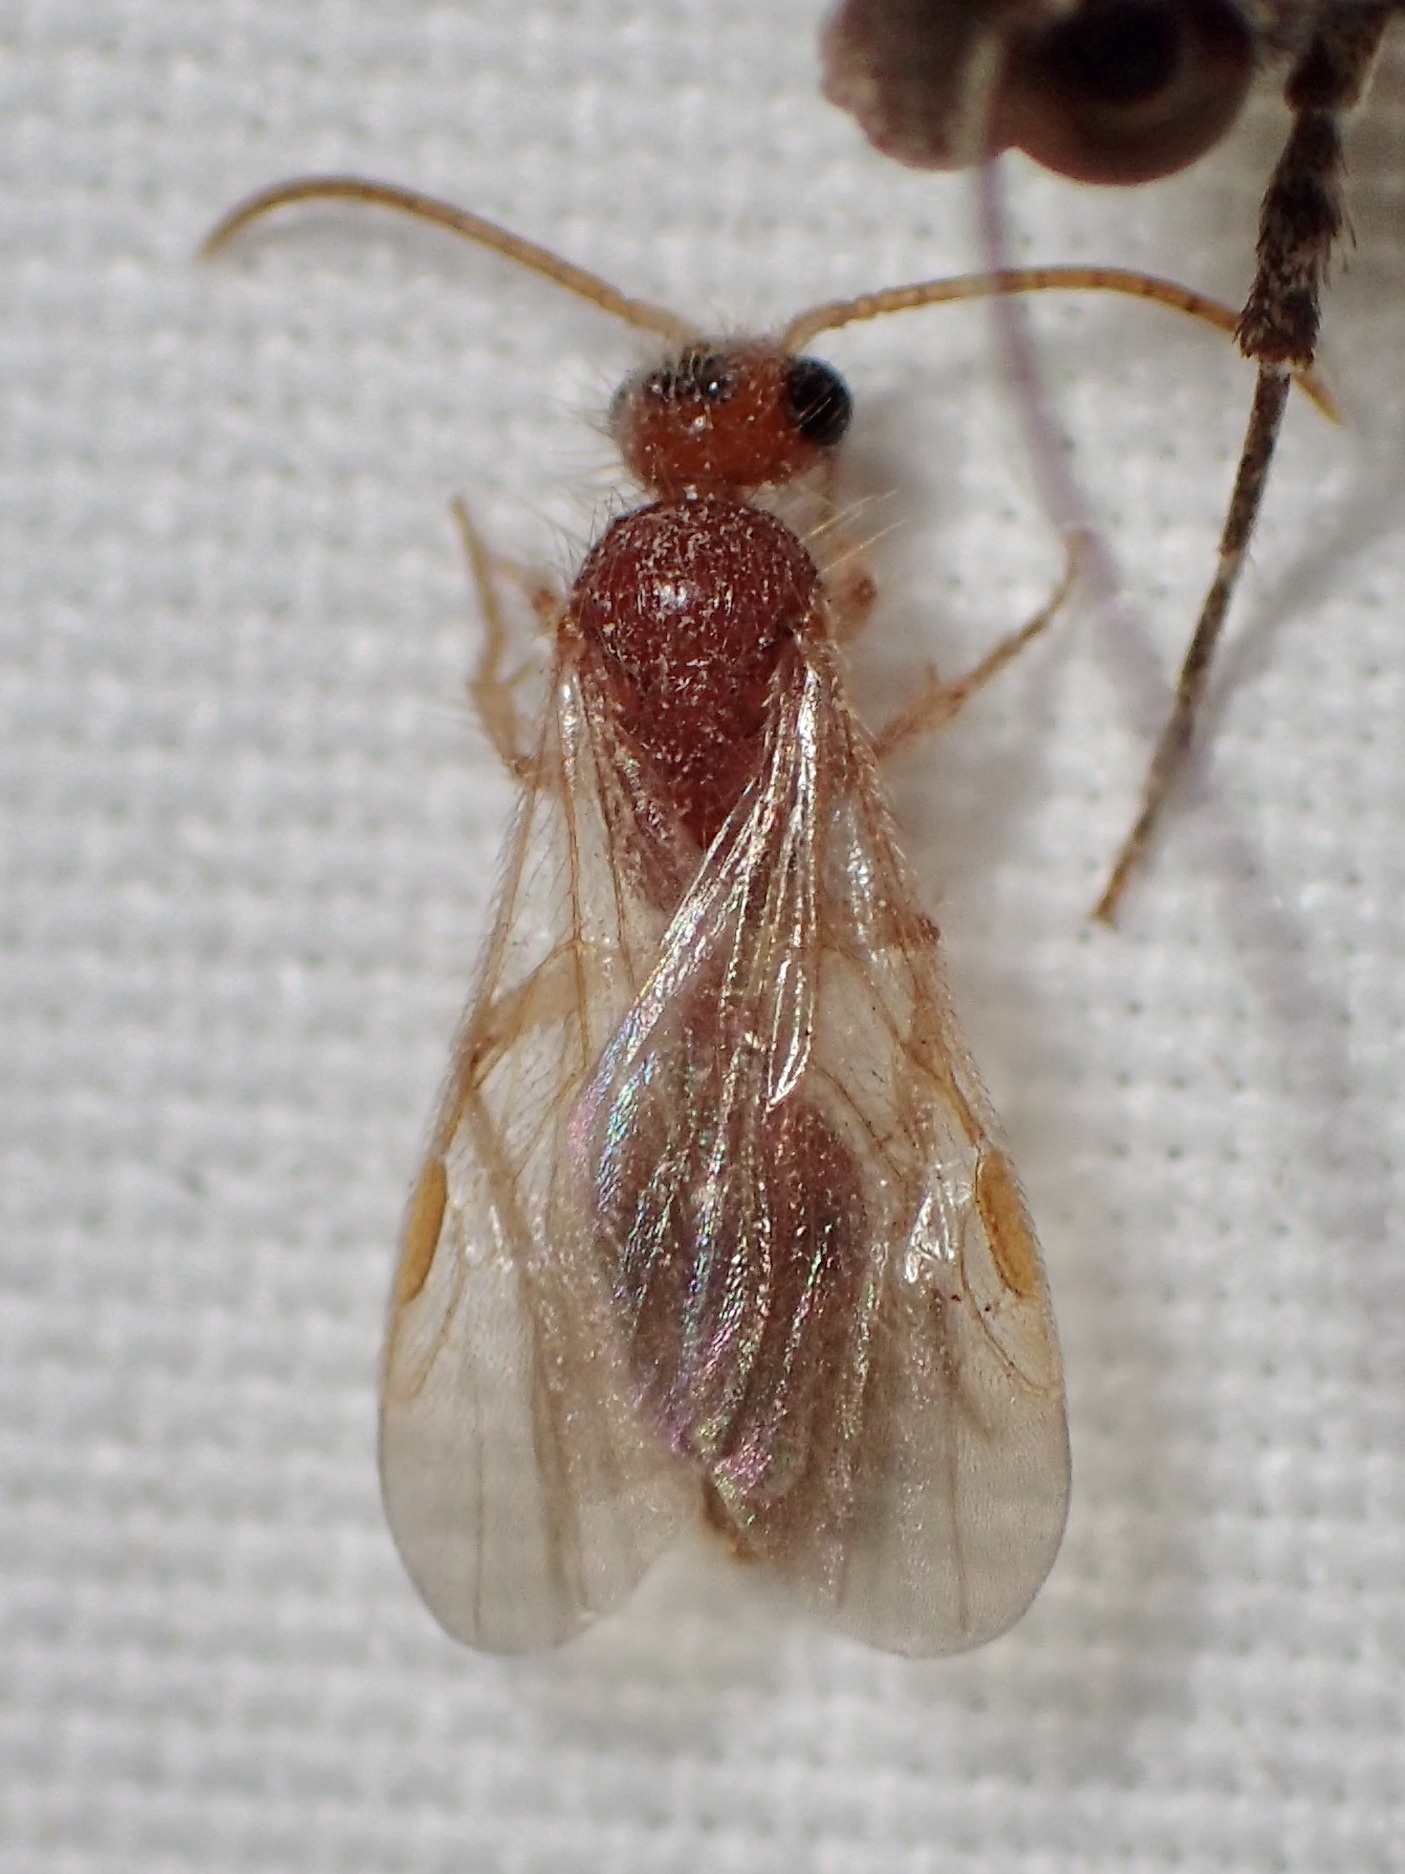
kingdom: Animalia
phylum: Arthropoda
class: Insecta
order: Hymenoptera
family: Mutillidae
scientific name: Mutillidae
